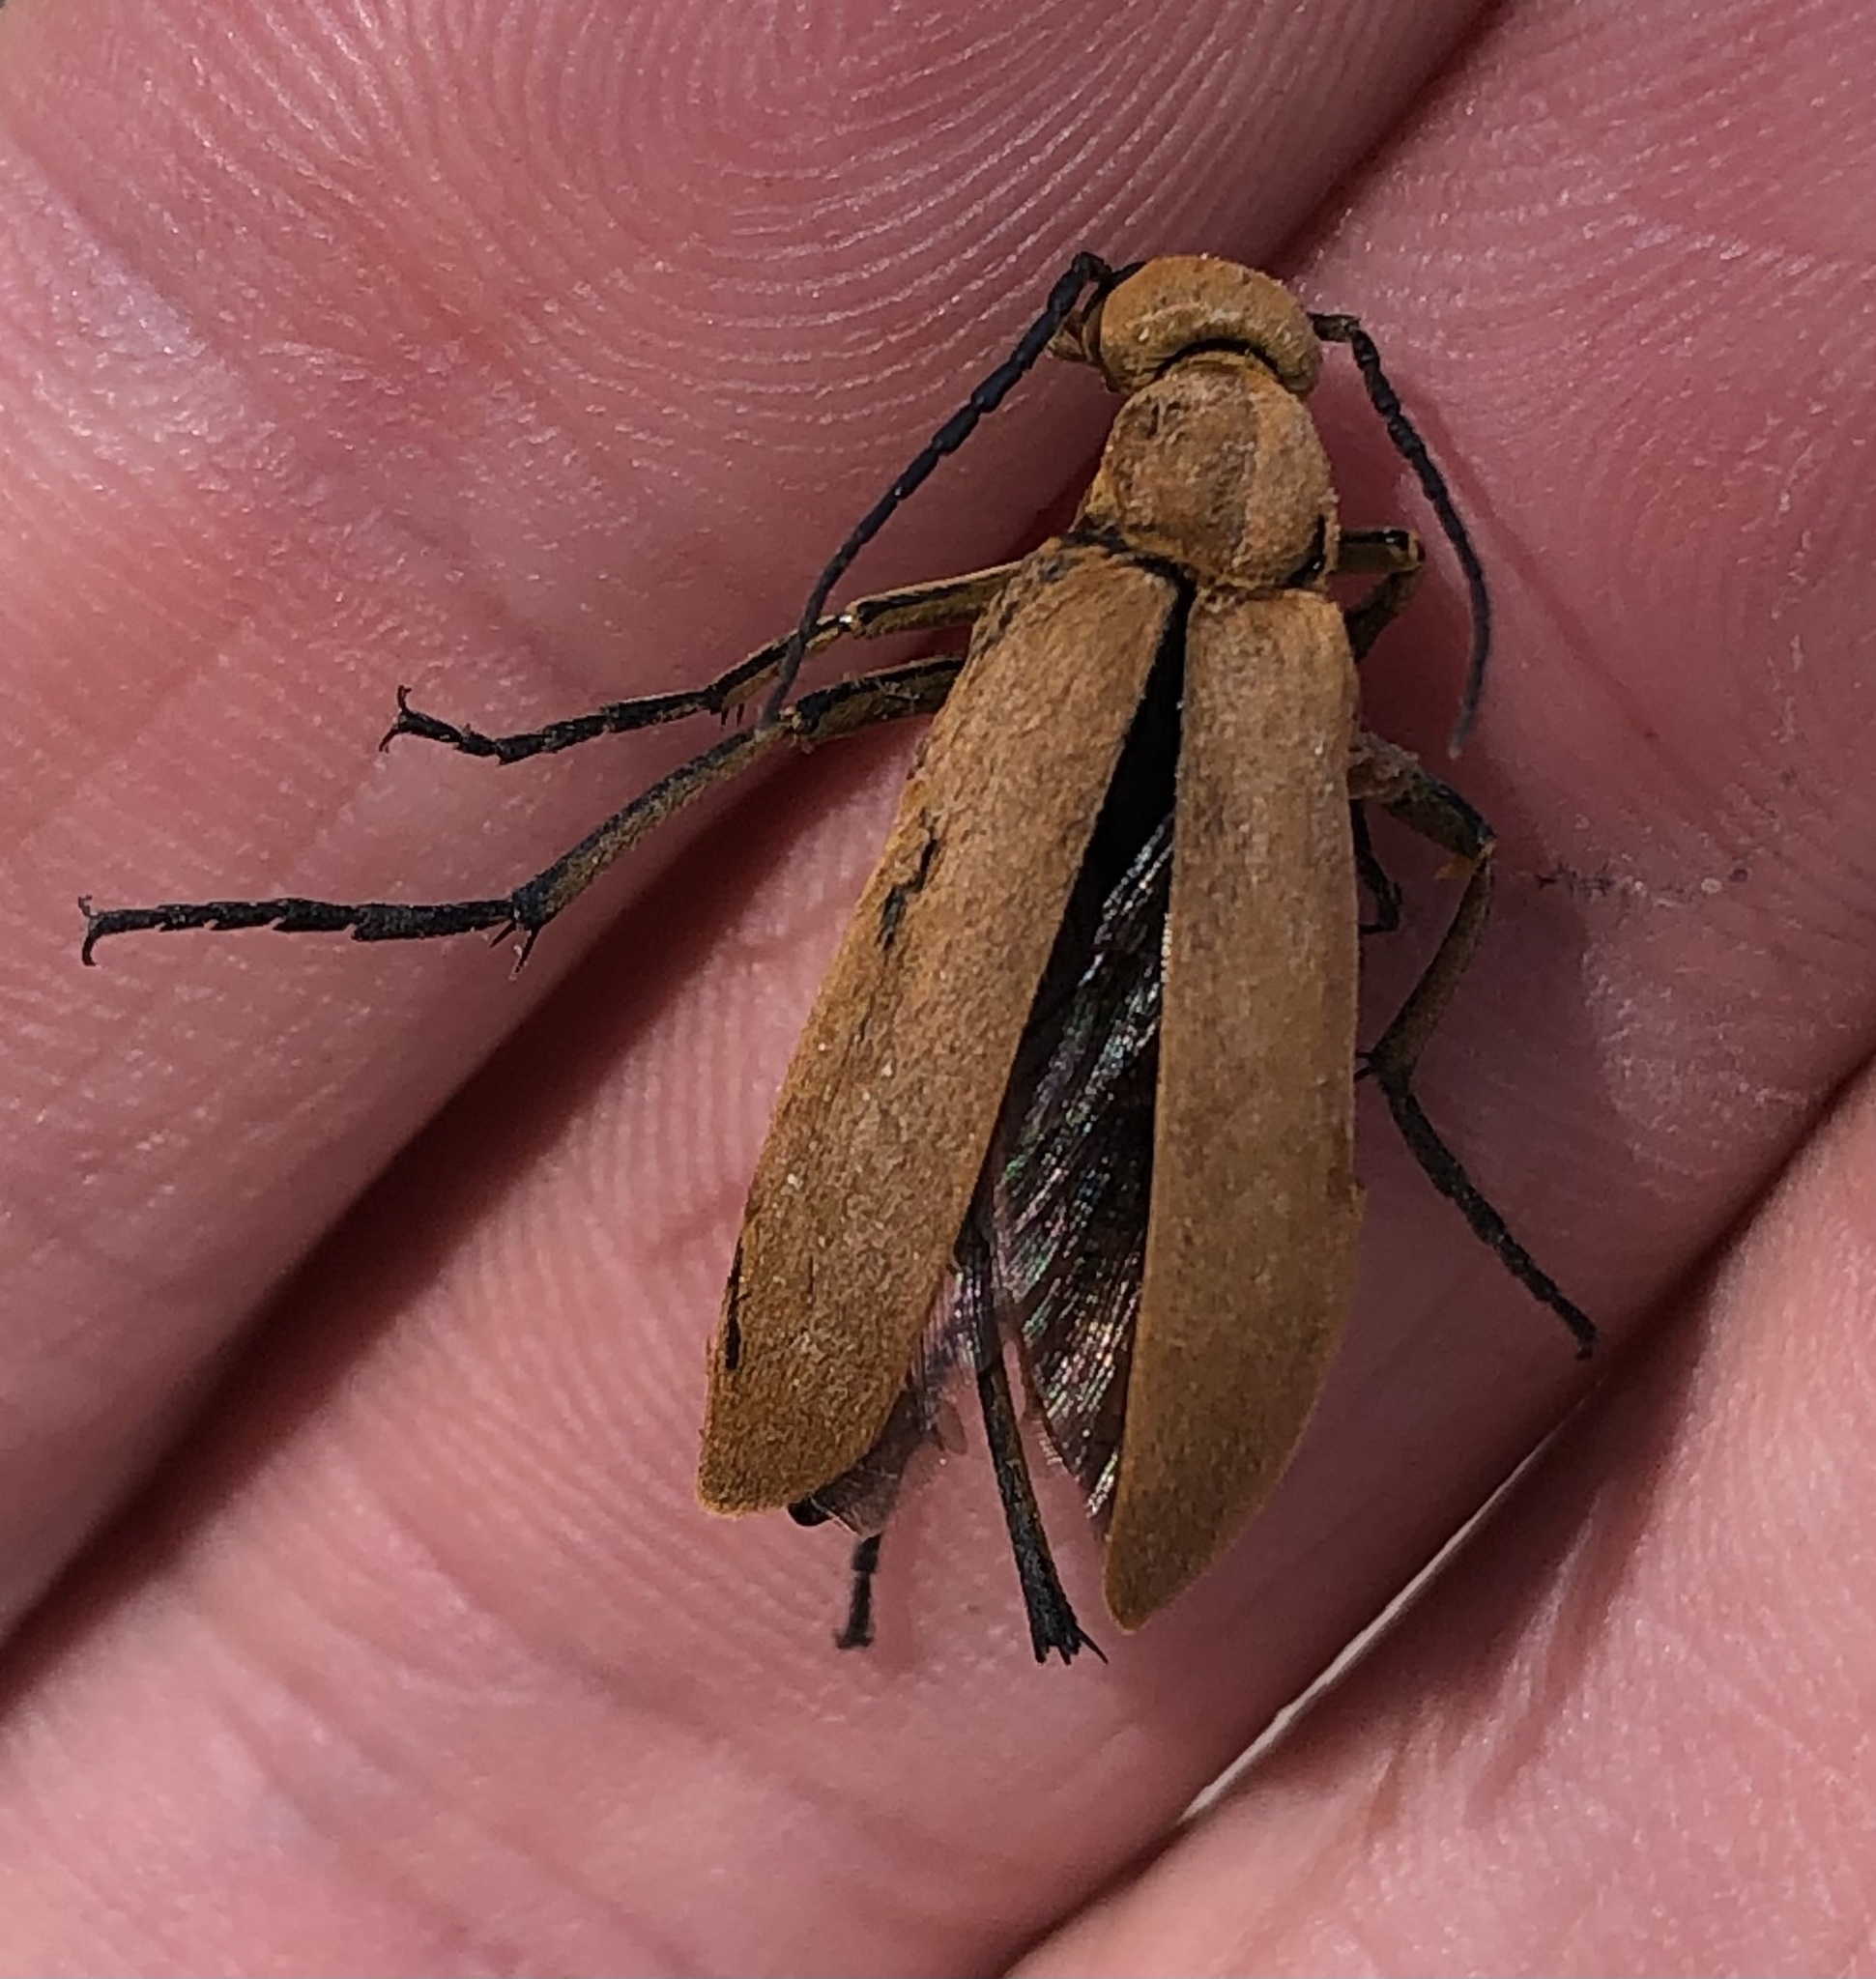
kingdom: Animalia
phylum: Arthropoda
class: Insecta
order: Coleoptera
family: Meloidae
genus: Epicauta
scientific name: Epicauta immaculata
